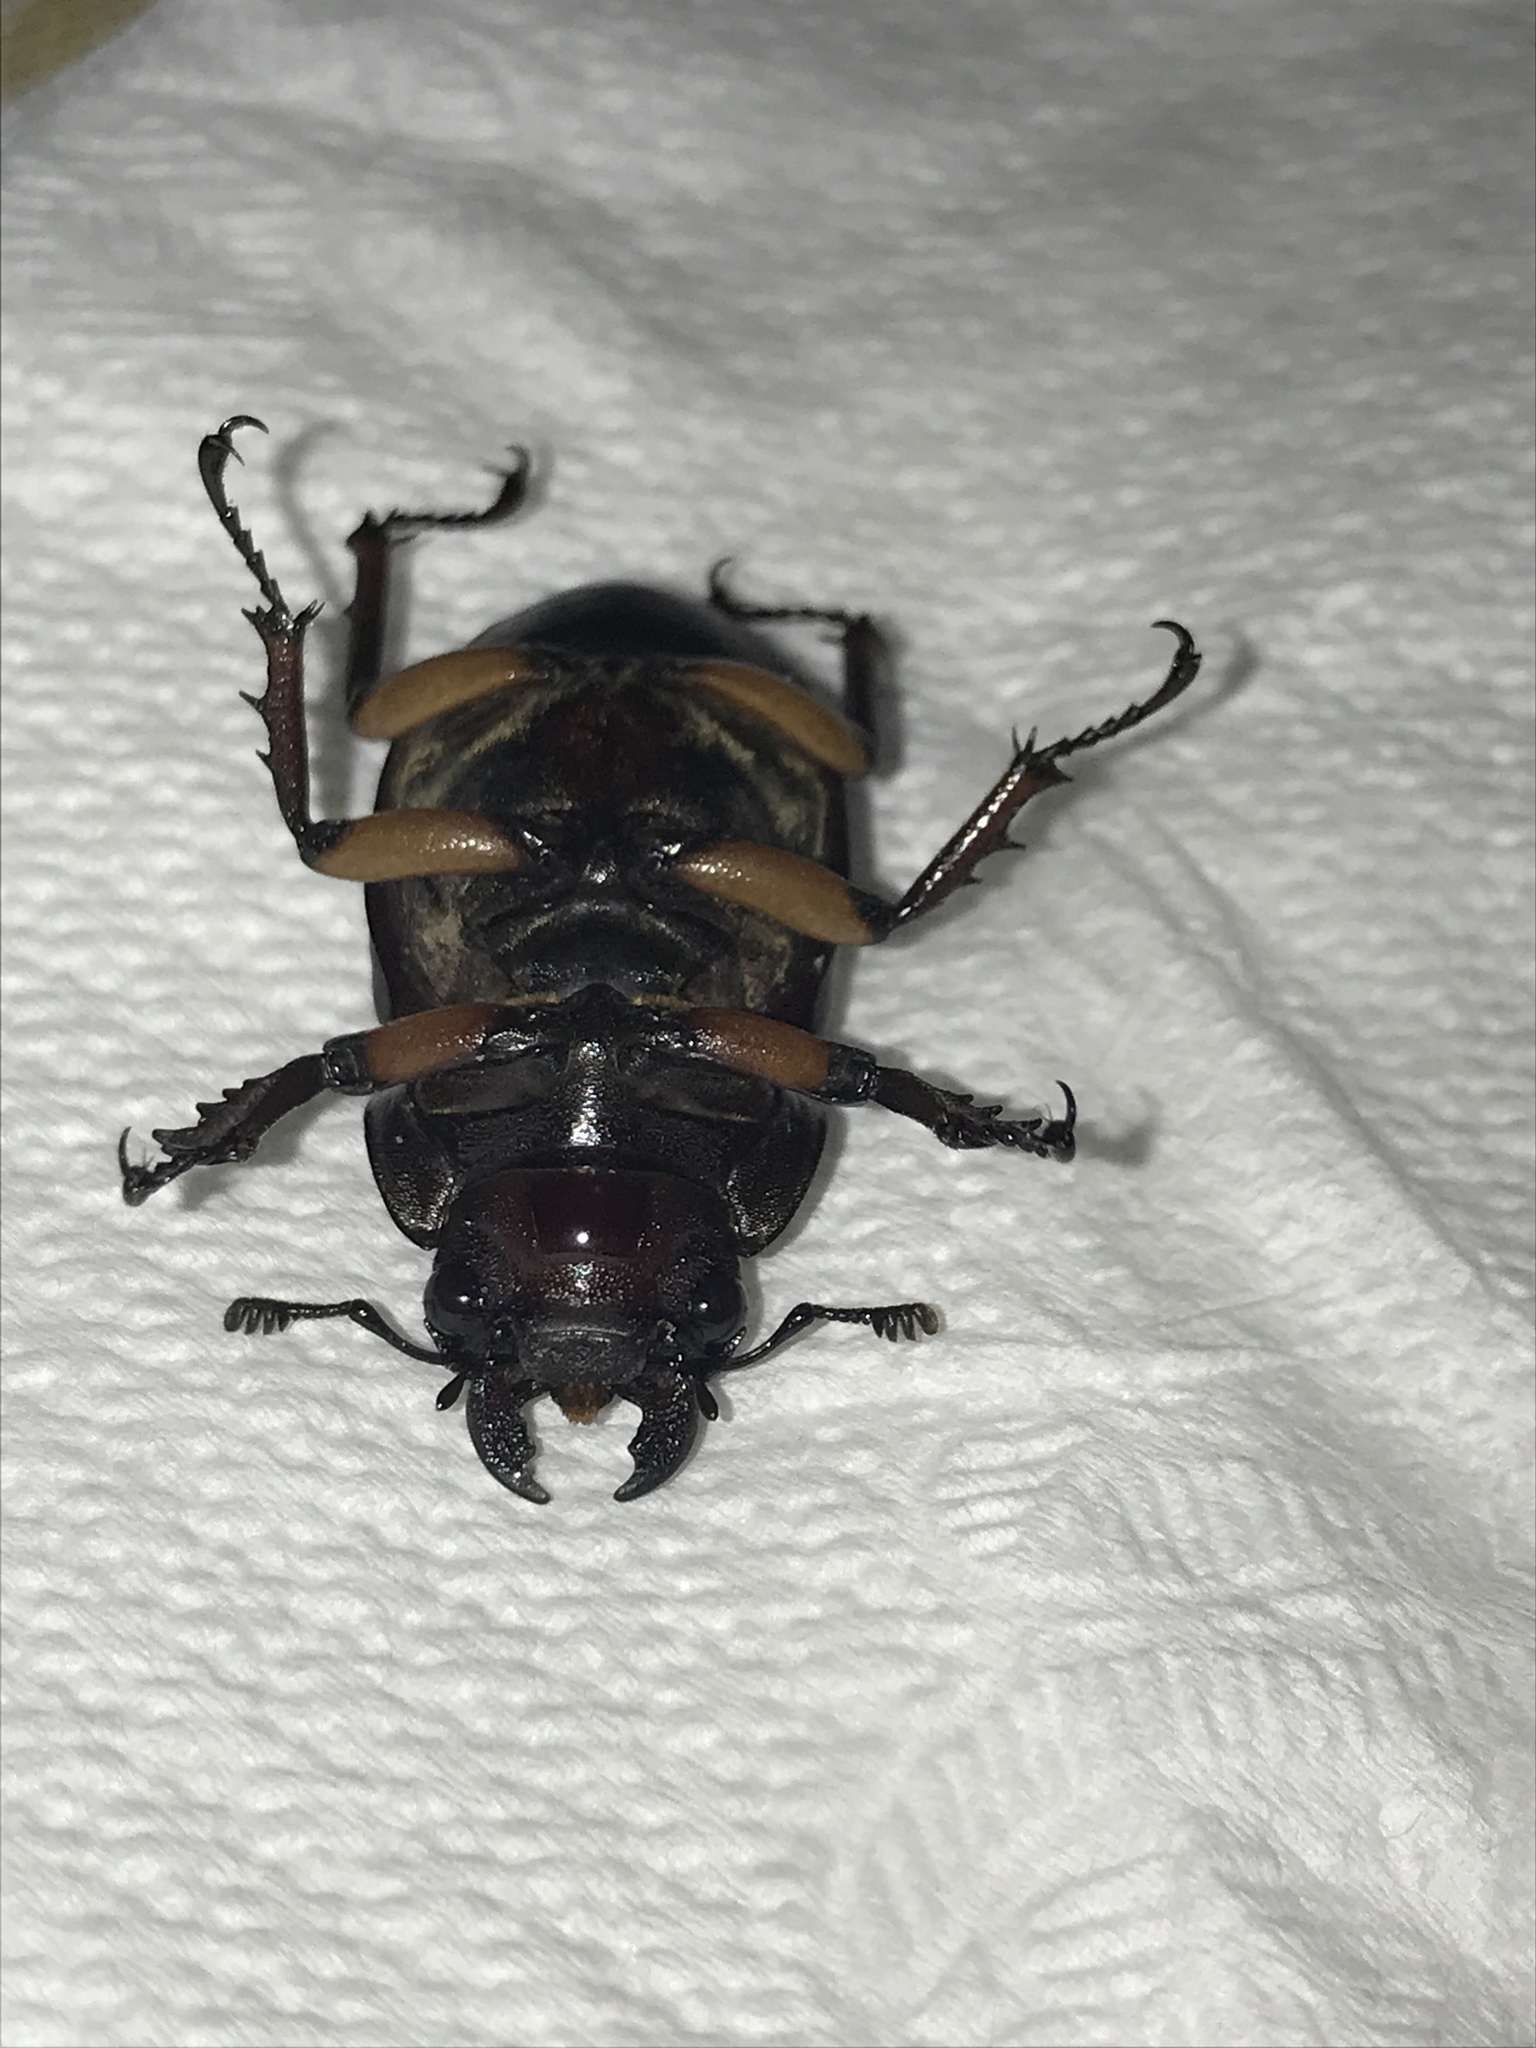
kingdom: Animalia
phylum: Arthropoda
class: Insecta
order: Coleoptera
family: Lucanidae
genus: Lucanus
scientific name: Lucanus capreolus
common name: Stag beetle
